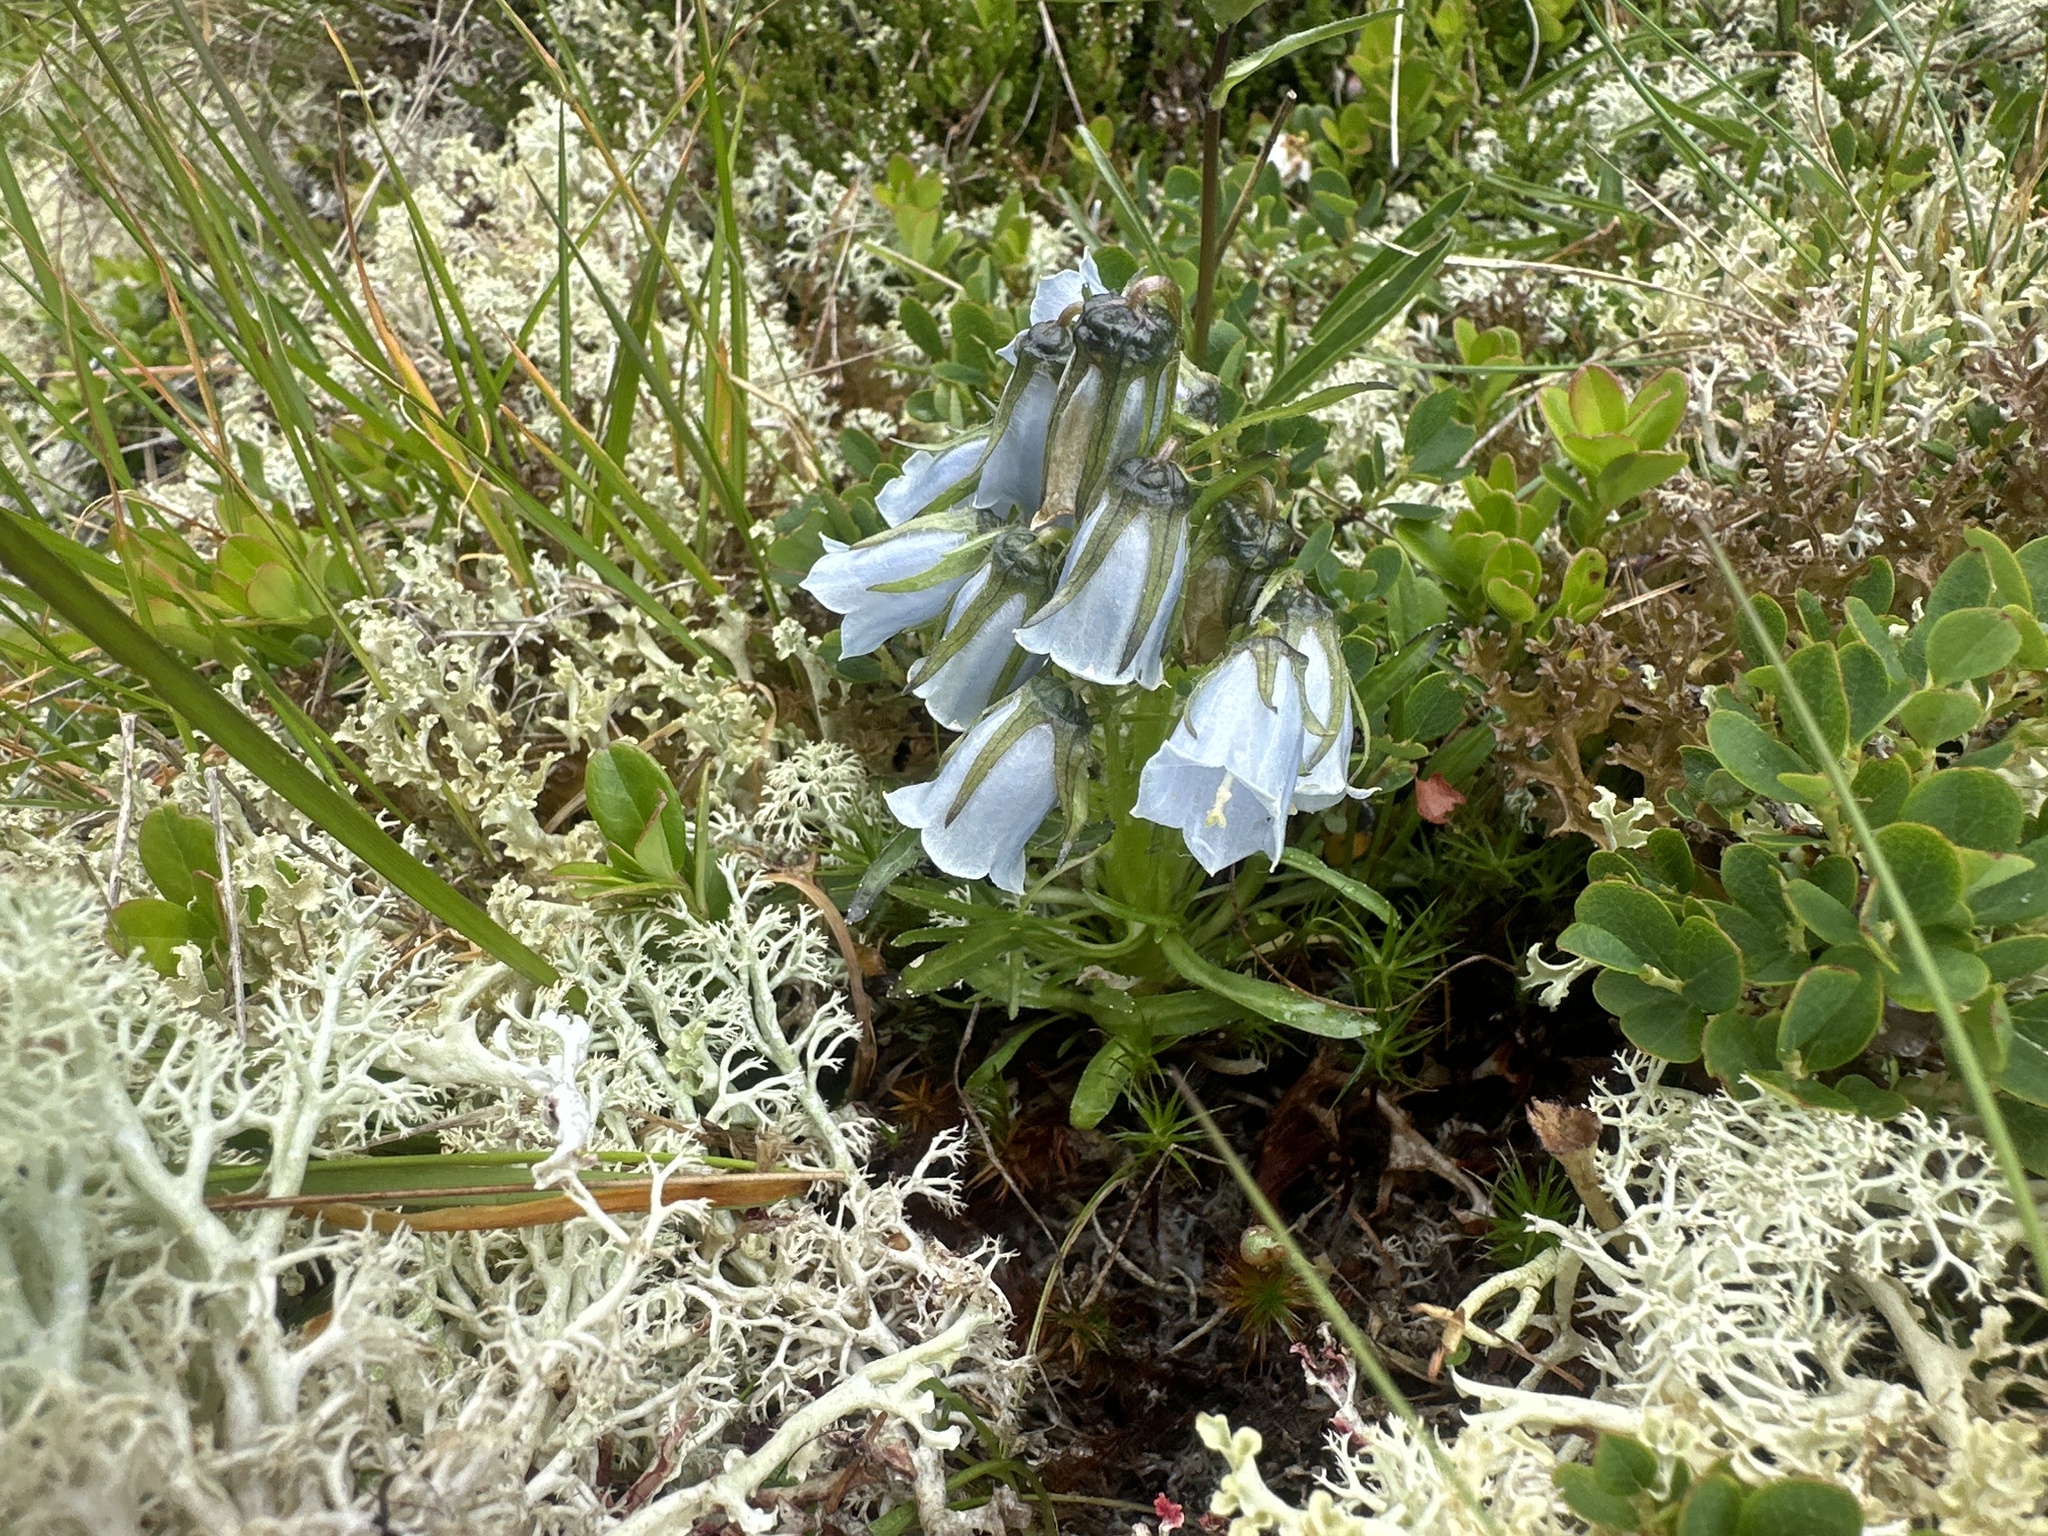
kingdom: Plantae
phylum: Tracheophyta
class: Magnoliopsida
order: Asterales
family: Campanulaceae
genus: Campanula
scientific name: Campanula alpina
